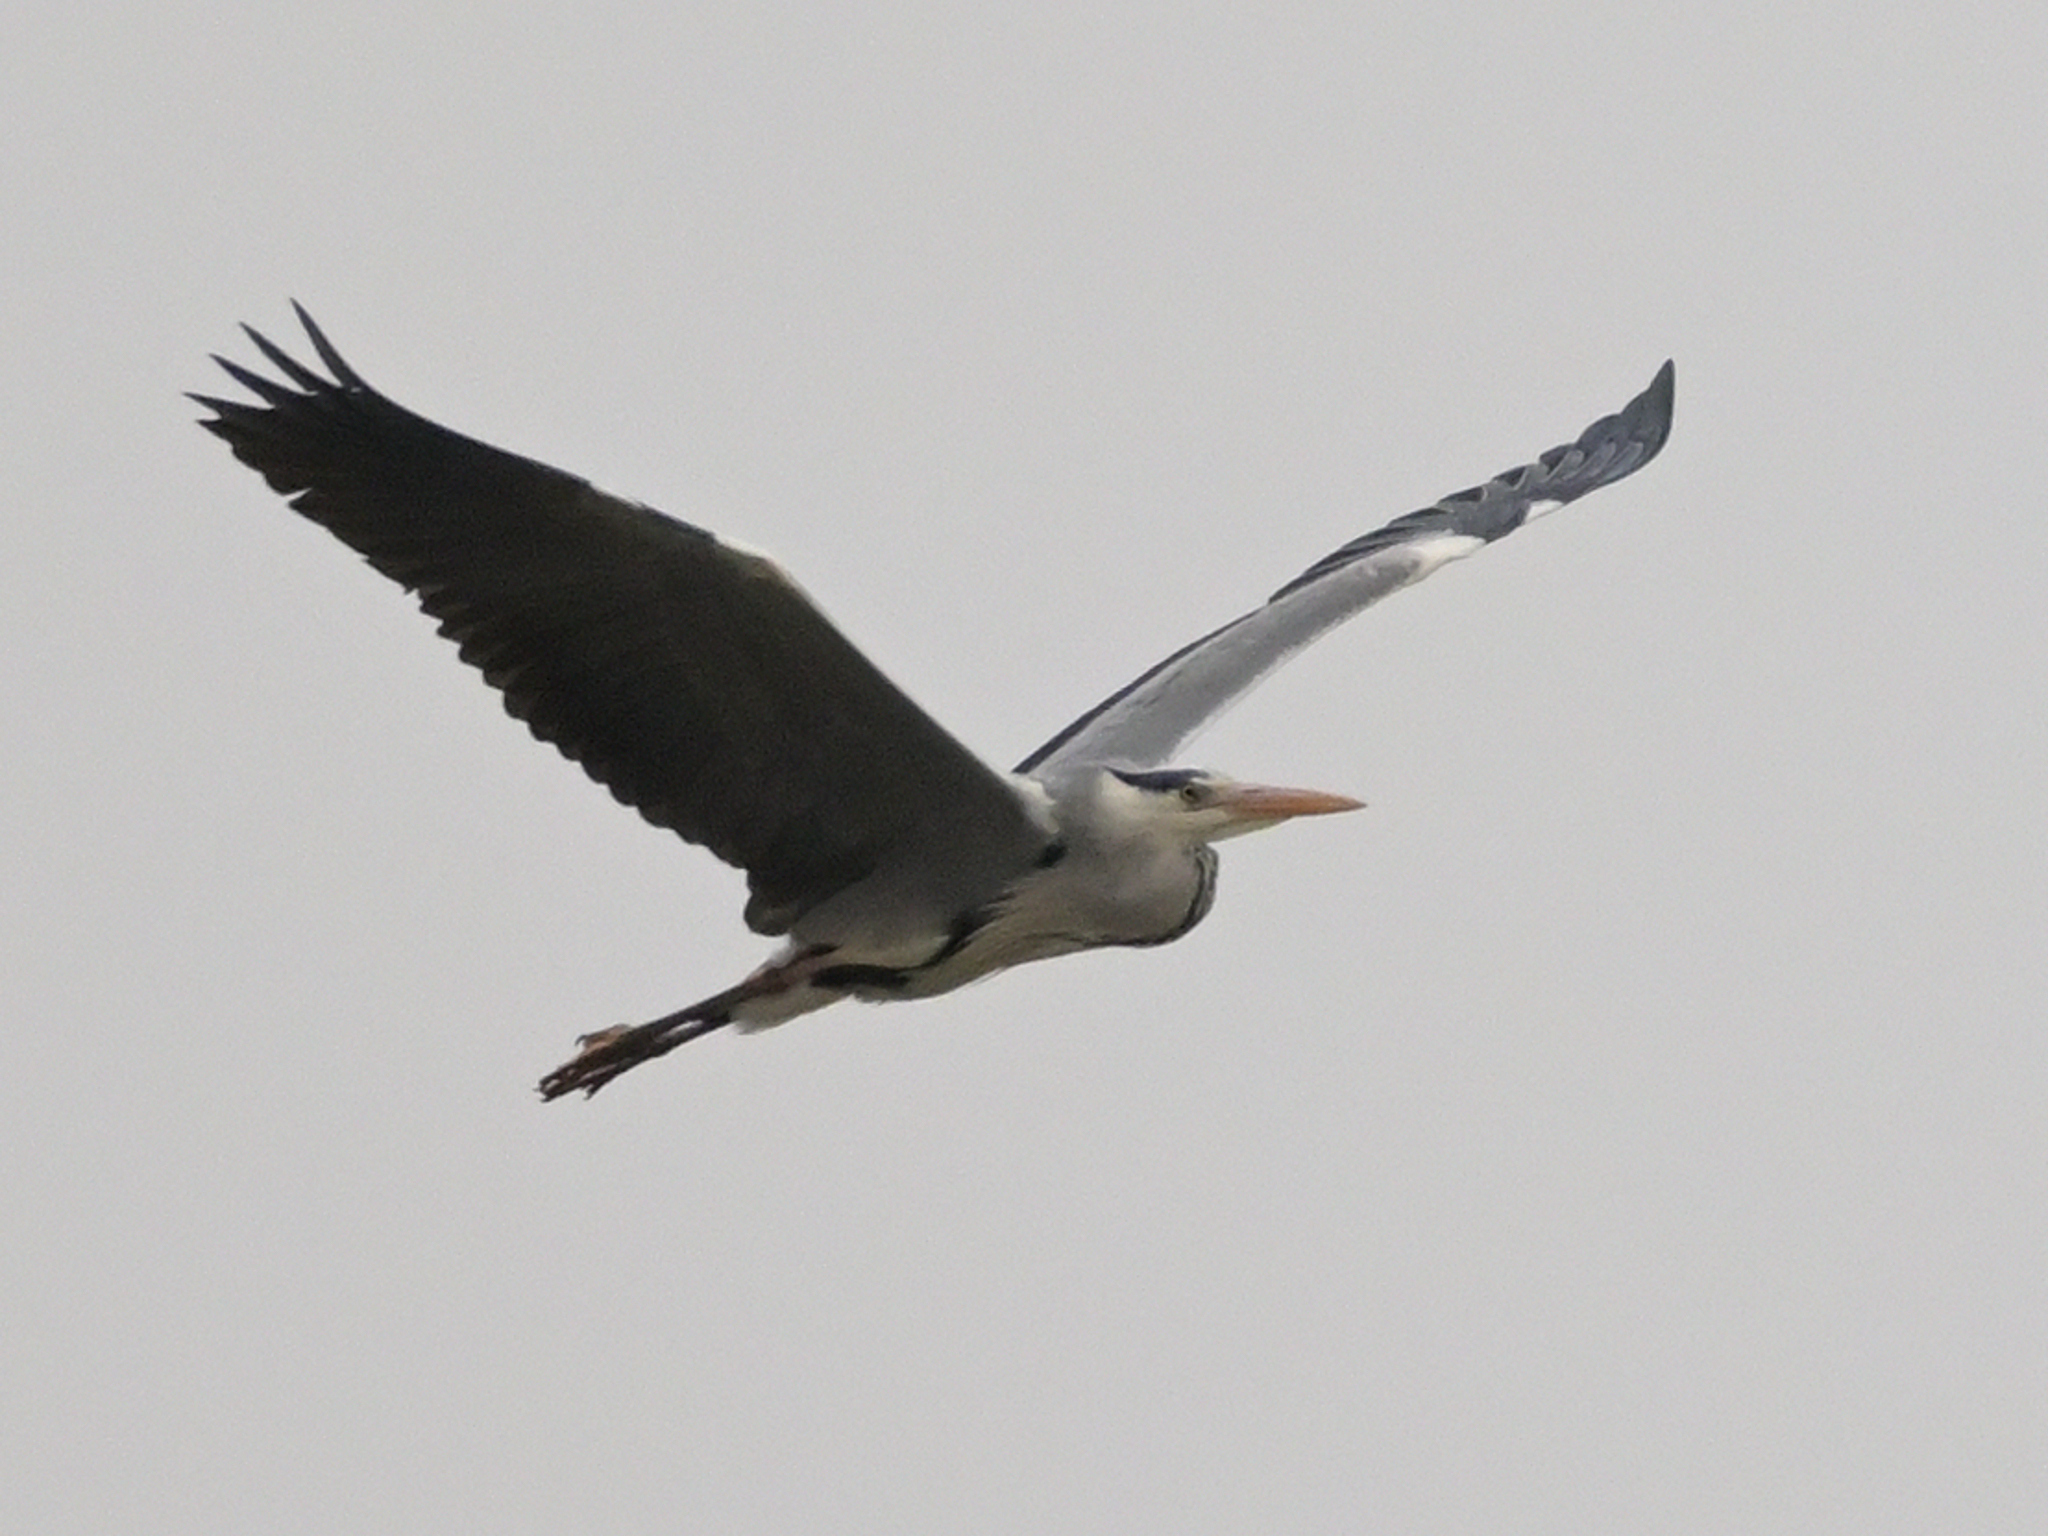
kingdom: Animalia
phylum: Chordata
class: Aves
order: Pelecaniformes
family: Ardeidae
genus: Ardea
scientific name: Ardea cinerea
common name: Grey heron
